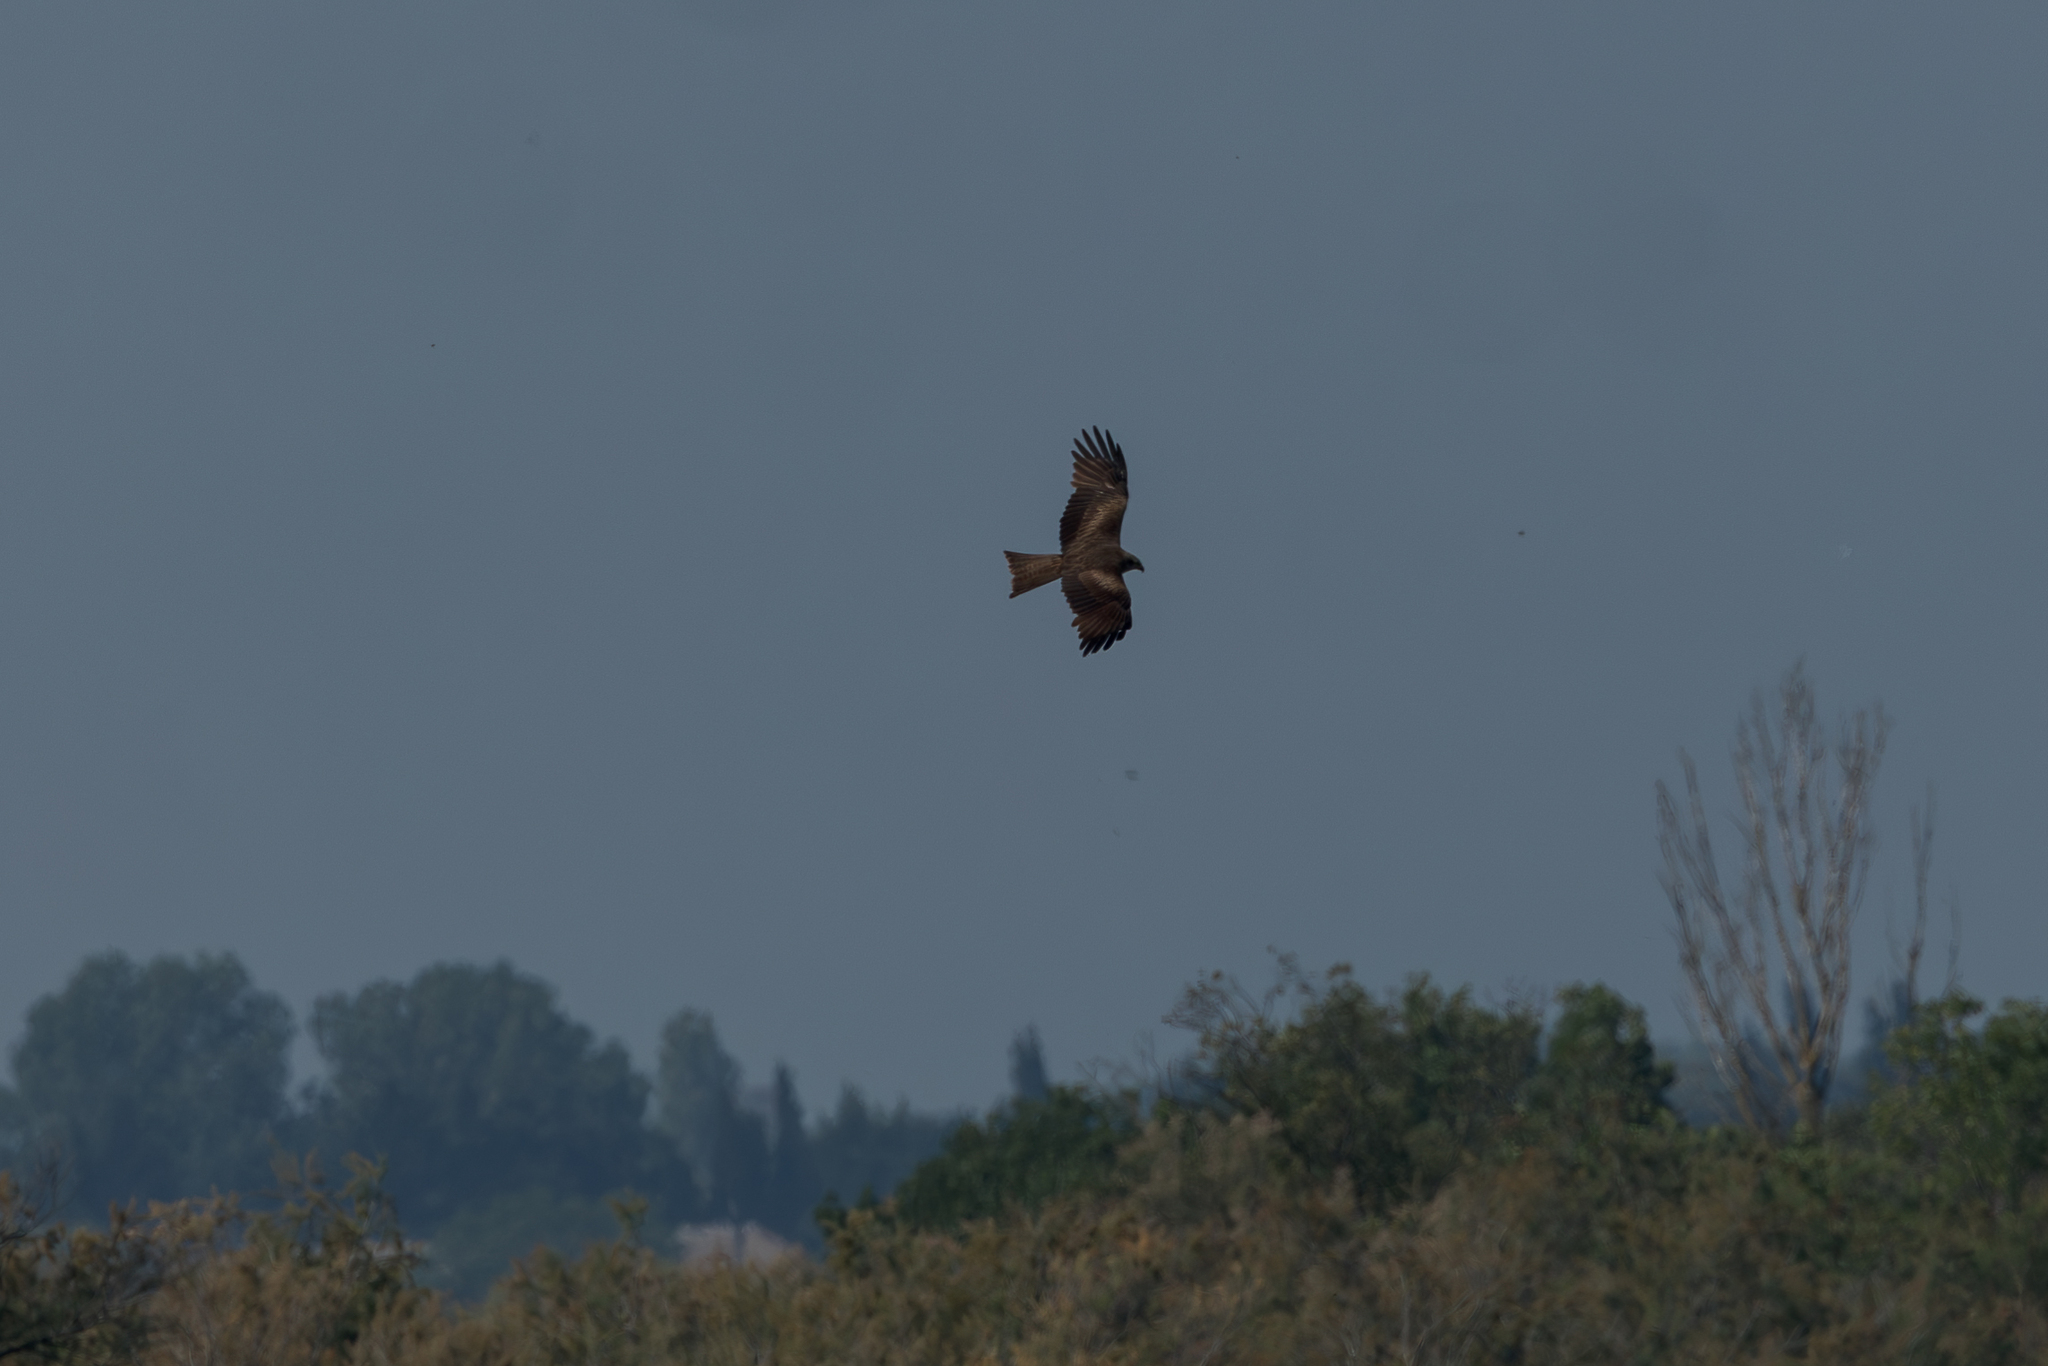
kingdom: Animalia
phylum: Chordata
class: Aves
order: Accipitriformes
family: Accipitridae
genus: Milvus
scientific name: Milvus migrans
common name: Black kite
